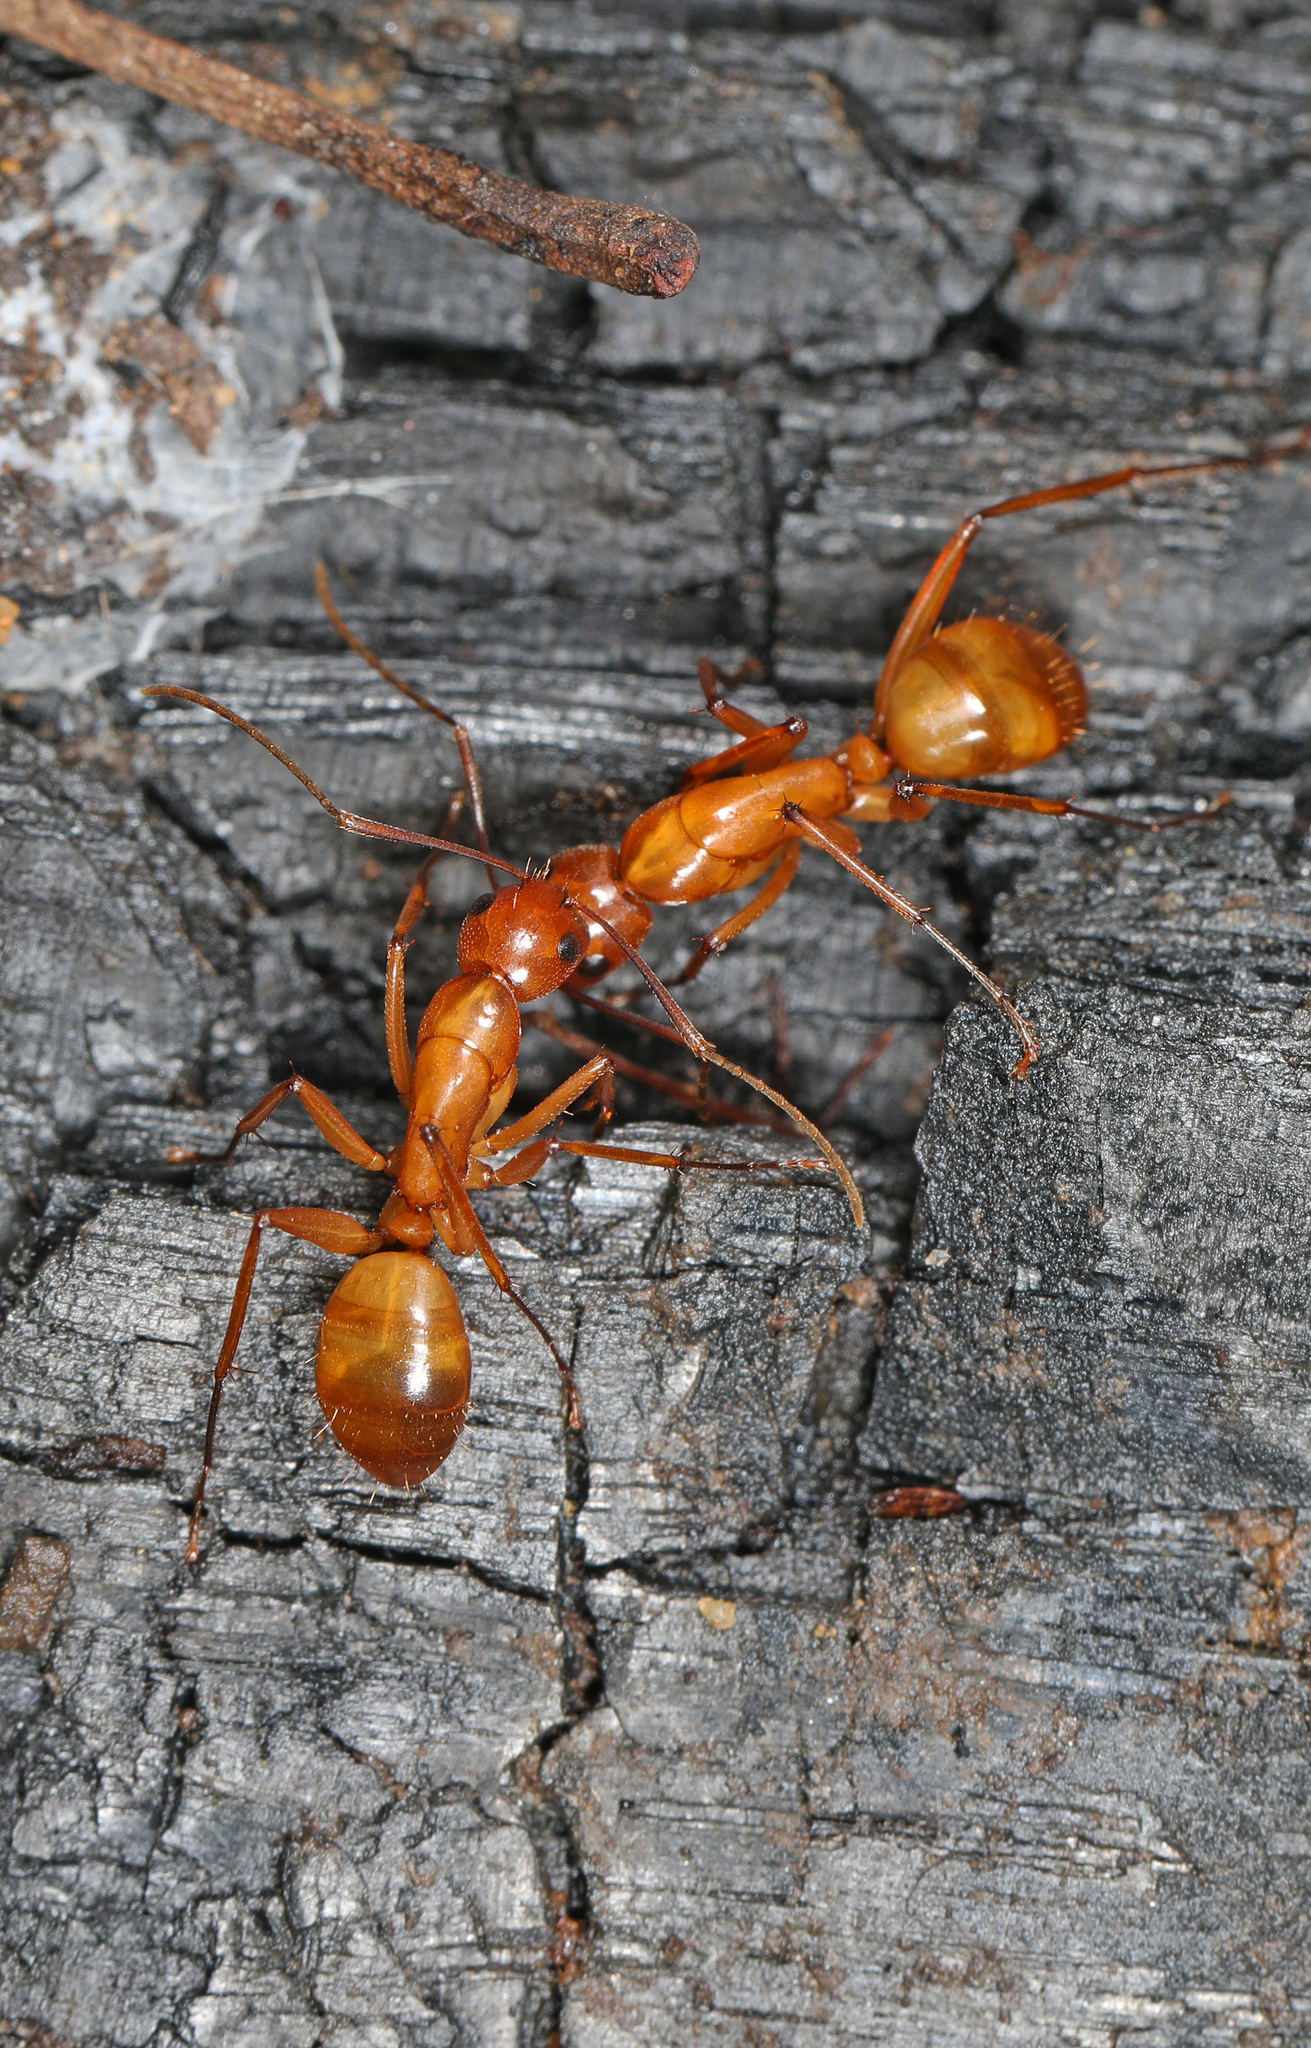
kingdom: Animalia
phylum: Arthropoda
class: Insecta
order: Hymenoptera
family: Formicidae
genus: Camponotus
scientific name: Camponotus castaneus
